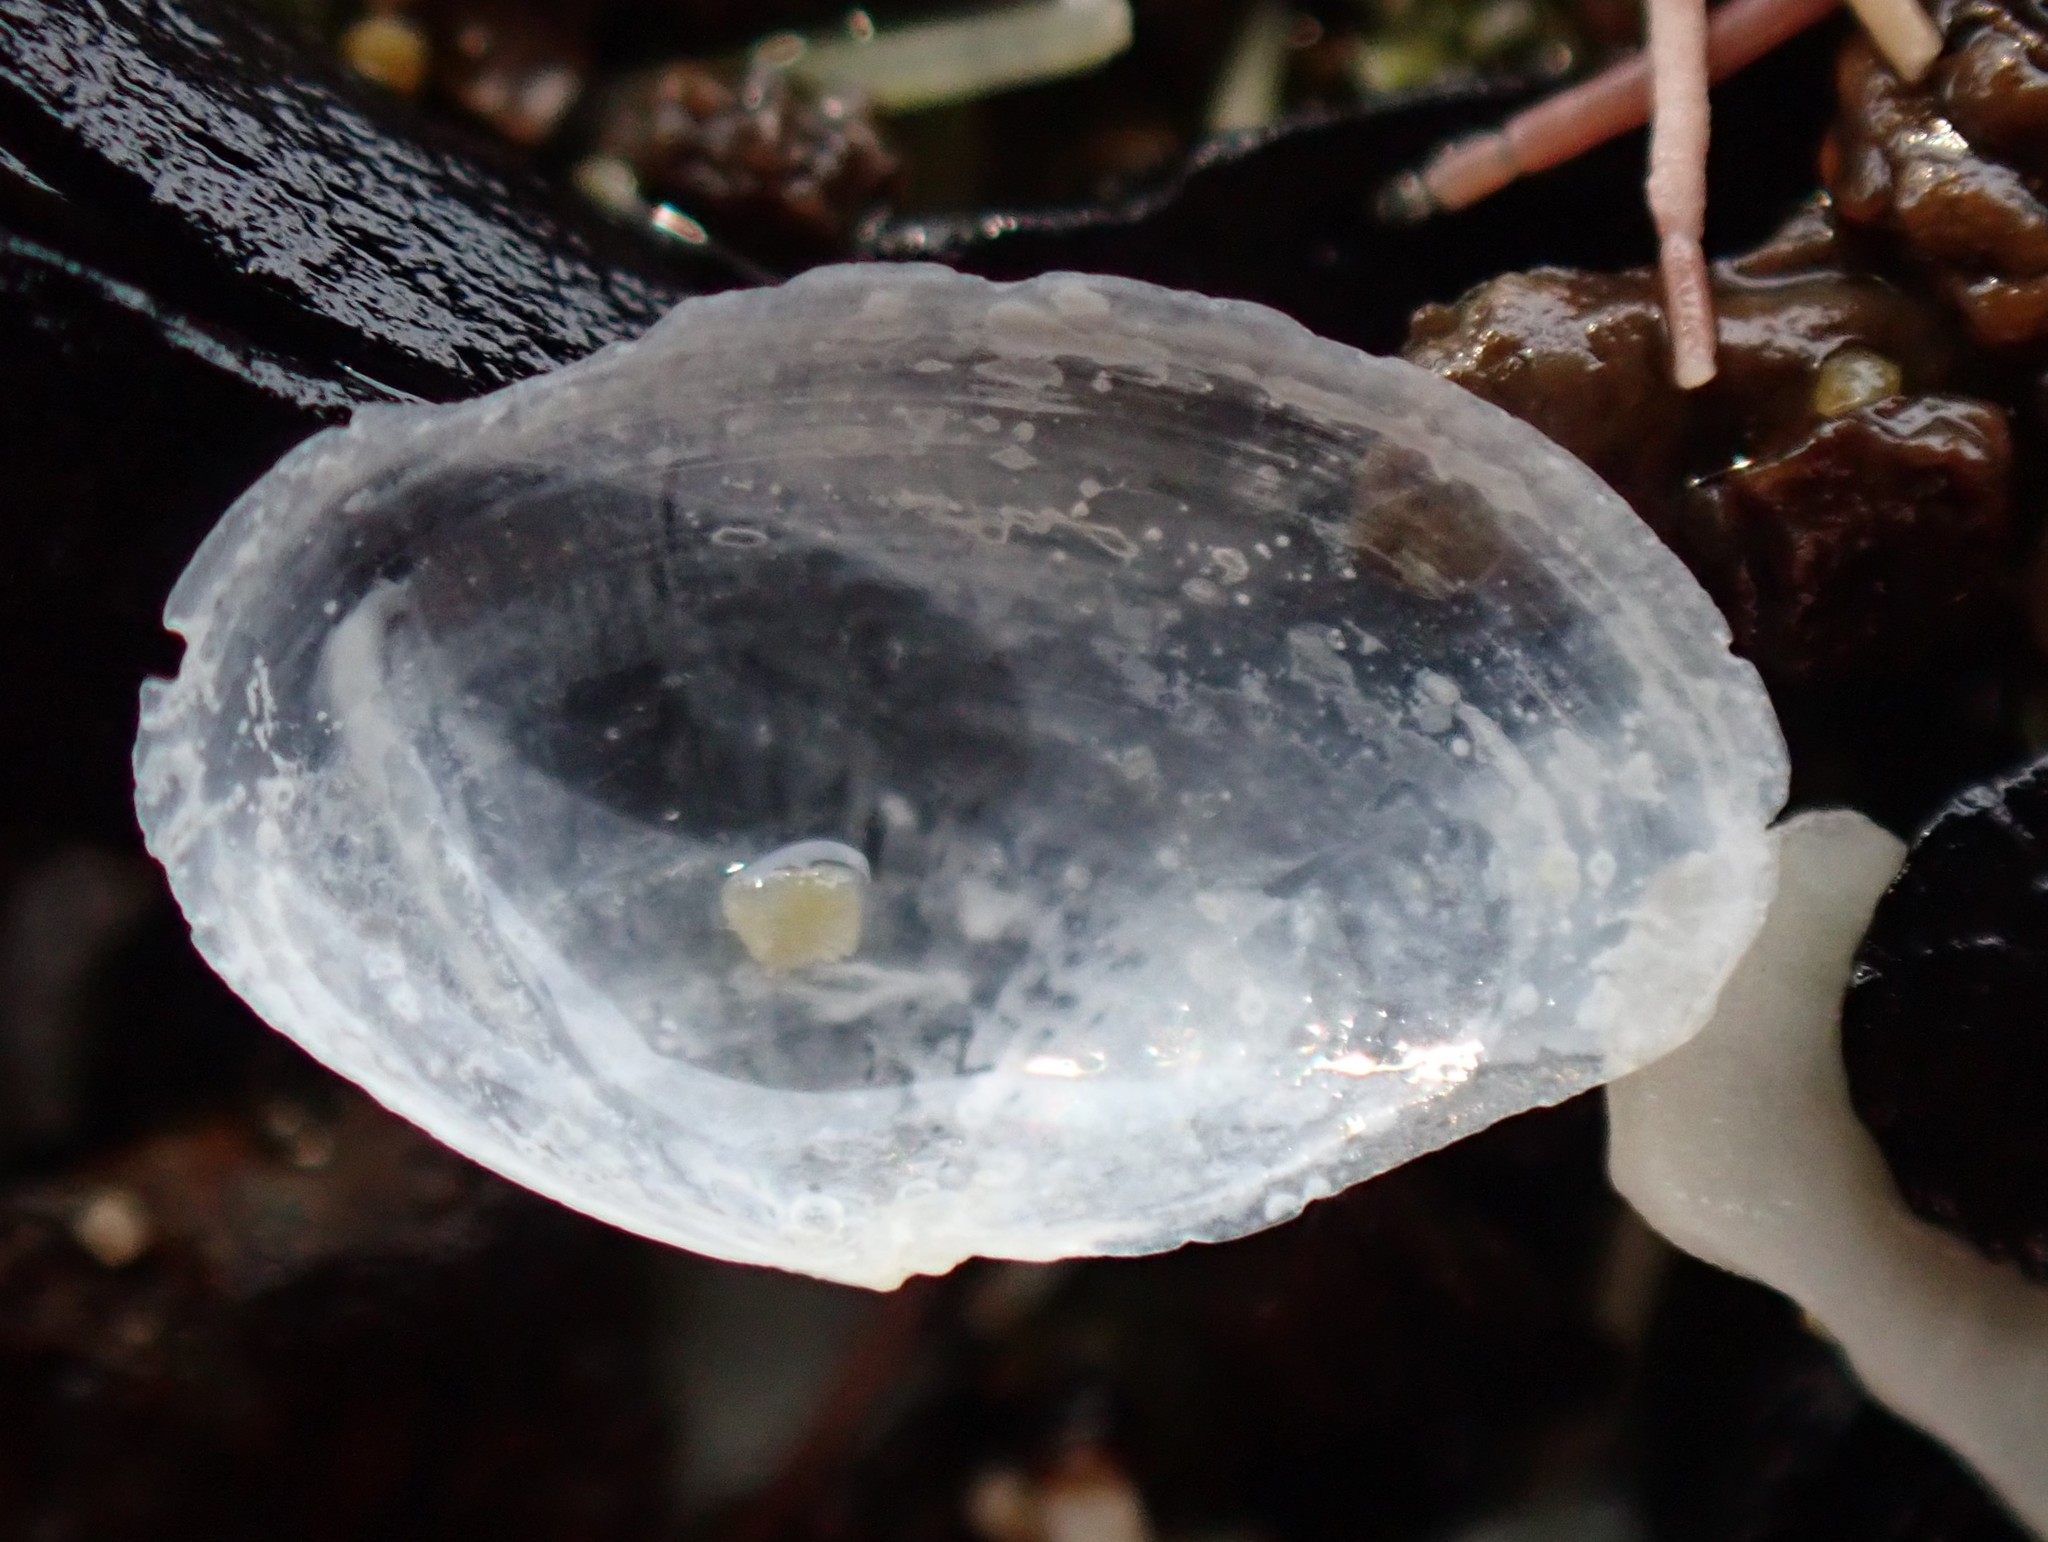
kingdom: Animalia
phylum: Mollusca
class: Bivalvia
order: Cardiida
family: Semelidae
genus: Theora
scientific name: Theora lubrica
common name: Asian semele
